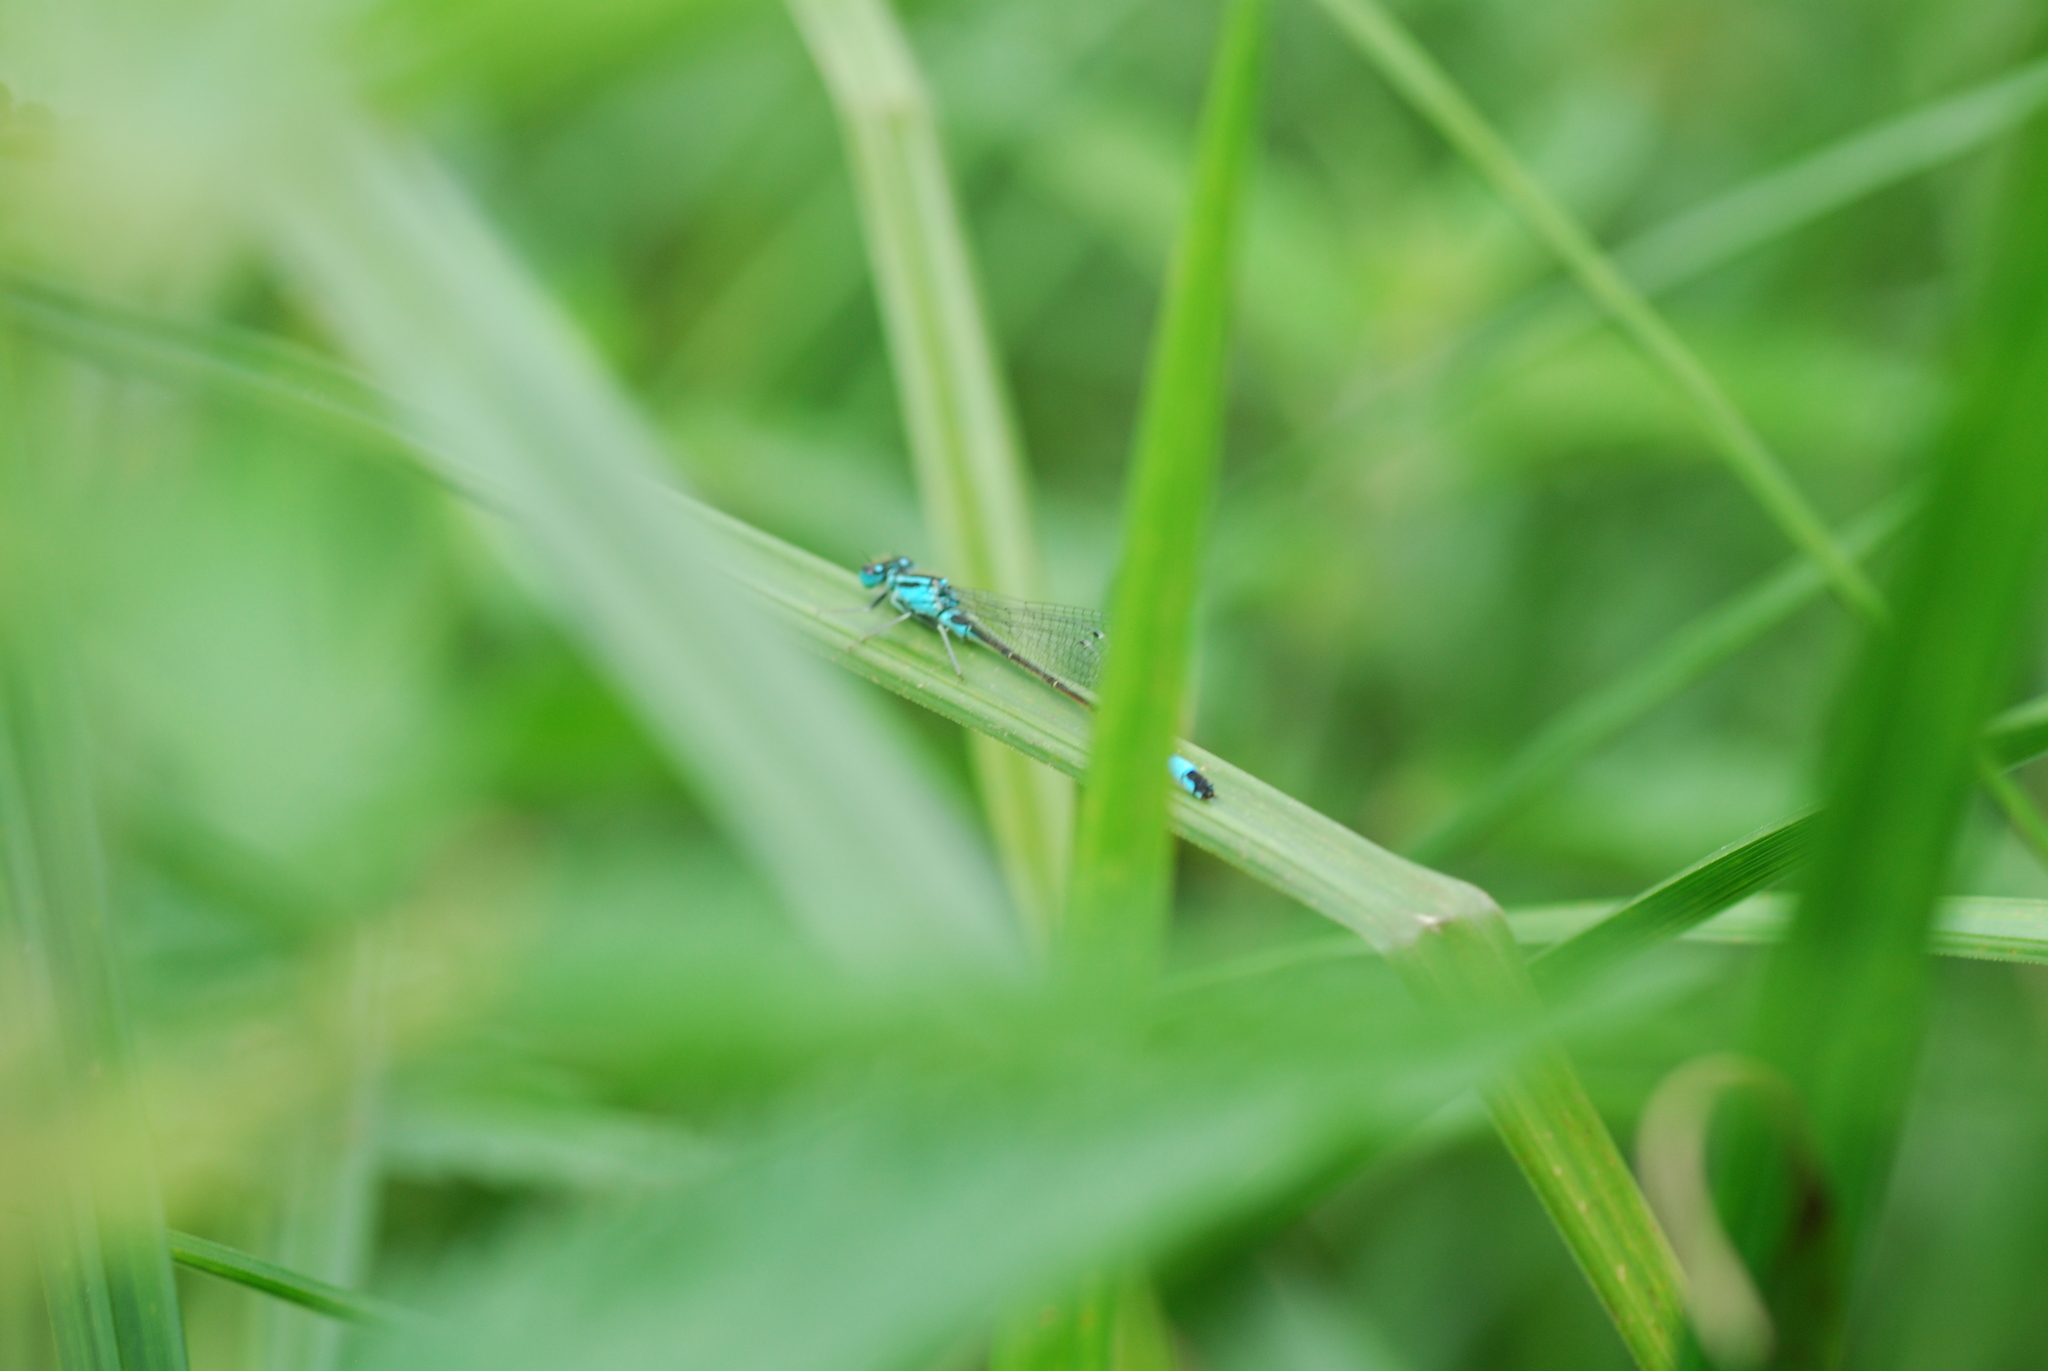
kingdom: Animalia
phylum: Arthropoda
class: Insecta
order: Odonata
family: Coenagrionidae
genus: Ischnura
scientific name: Ischnura elegans
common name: Blue-tailed damselfly
